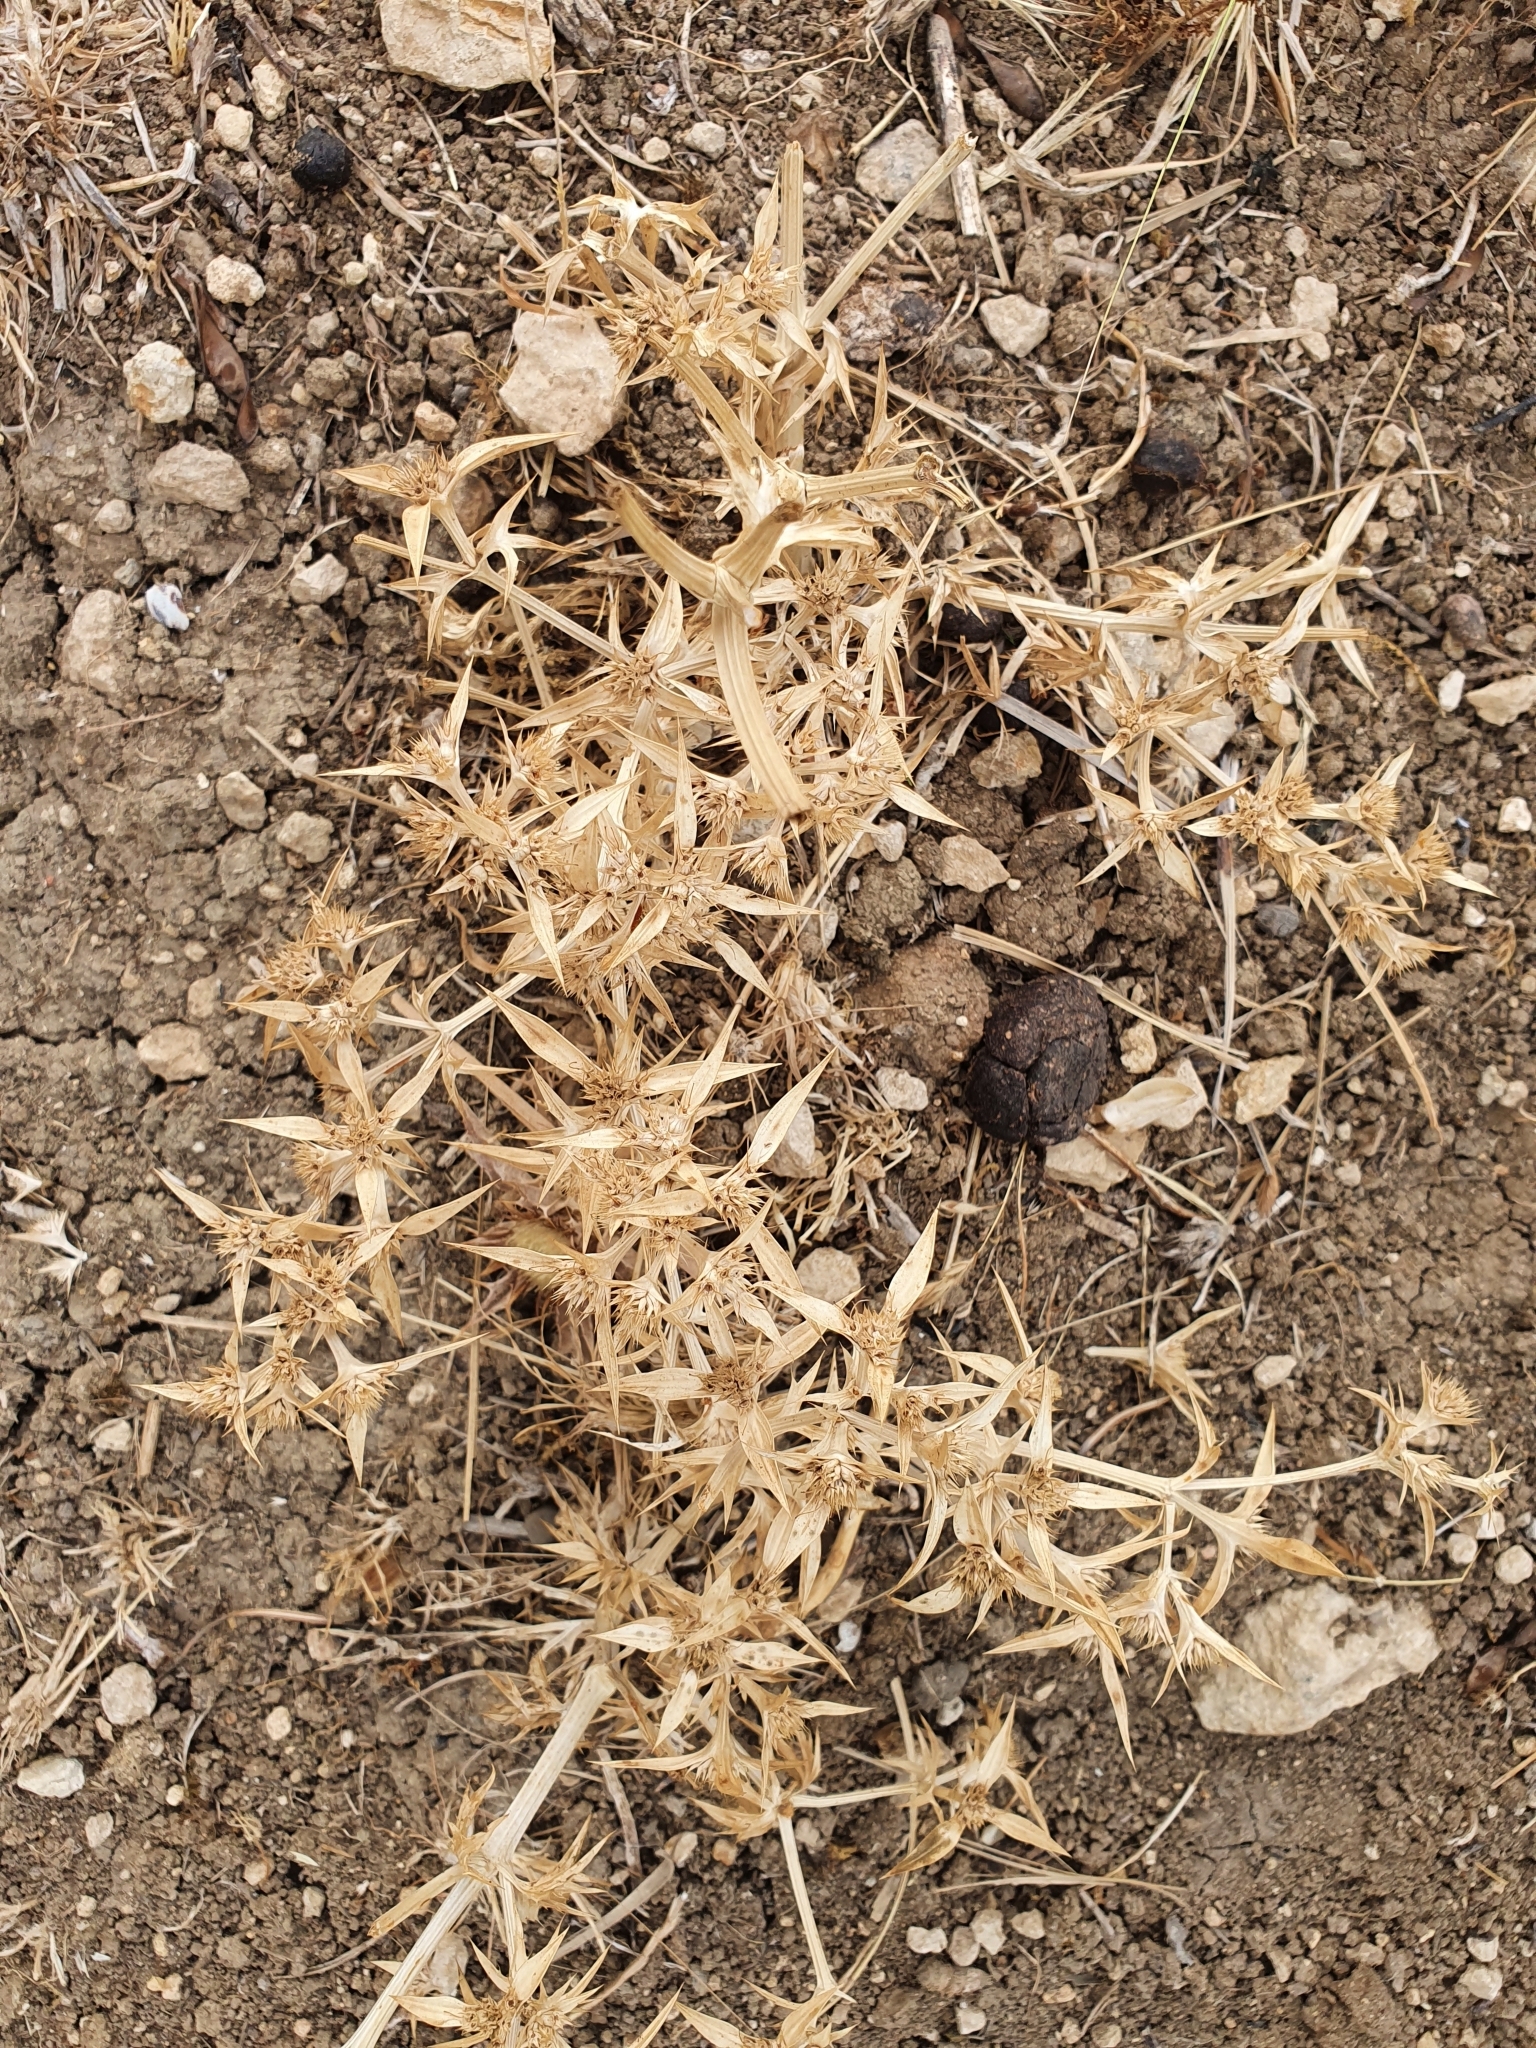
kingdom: Plantae
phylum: Tracheophyta
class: Magnoliopsida
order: Apiales
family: Apiaceae
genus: Eryngium
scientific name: Eryngium triquetrum
